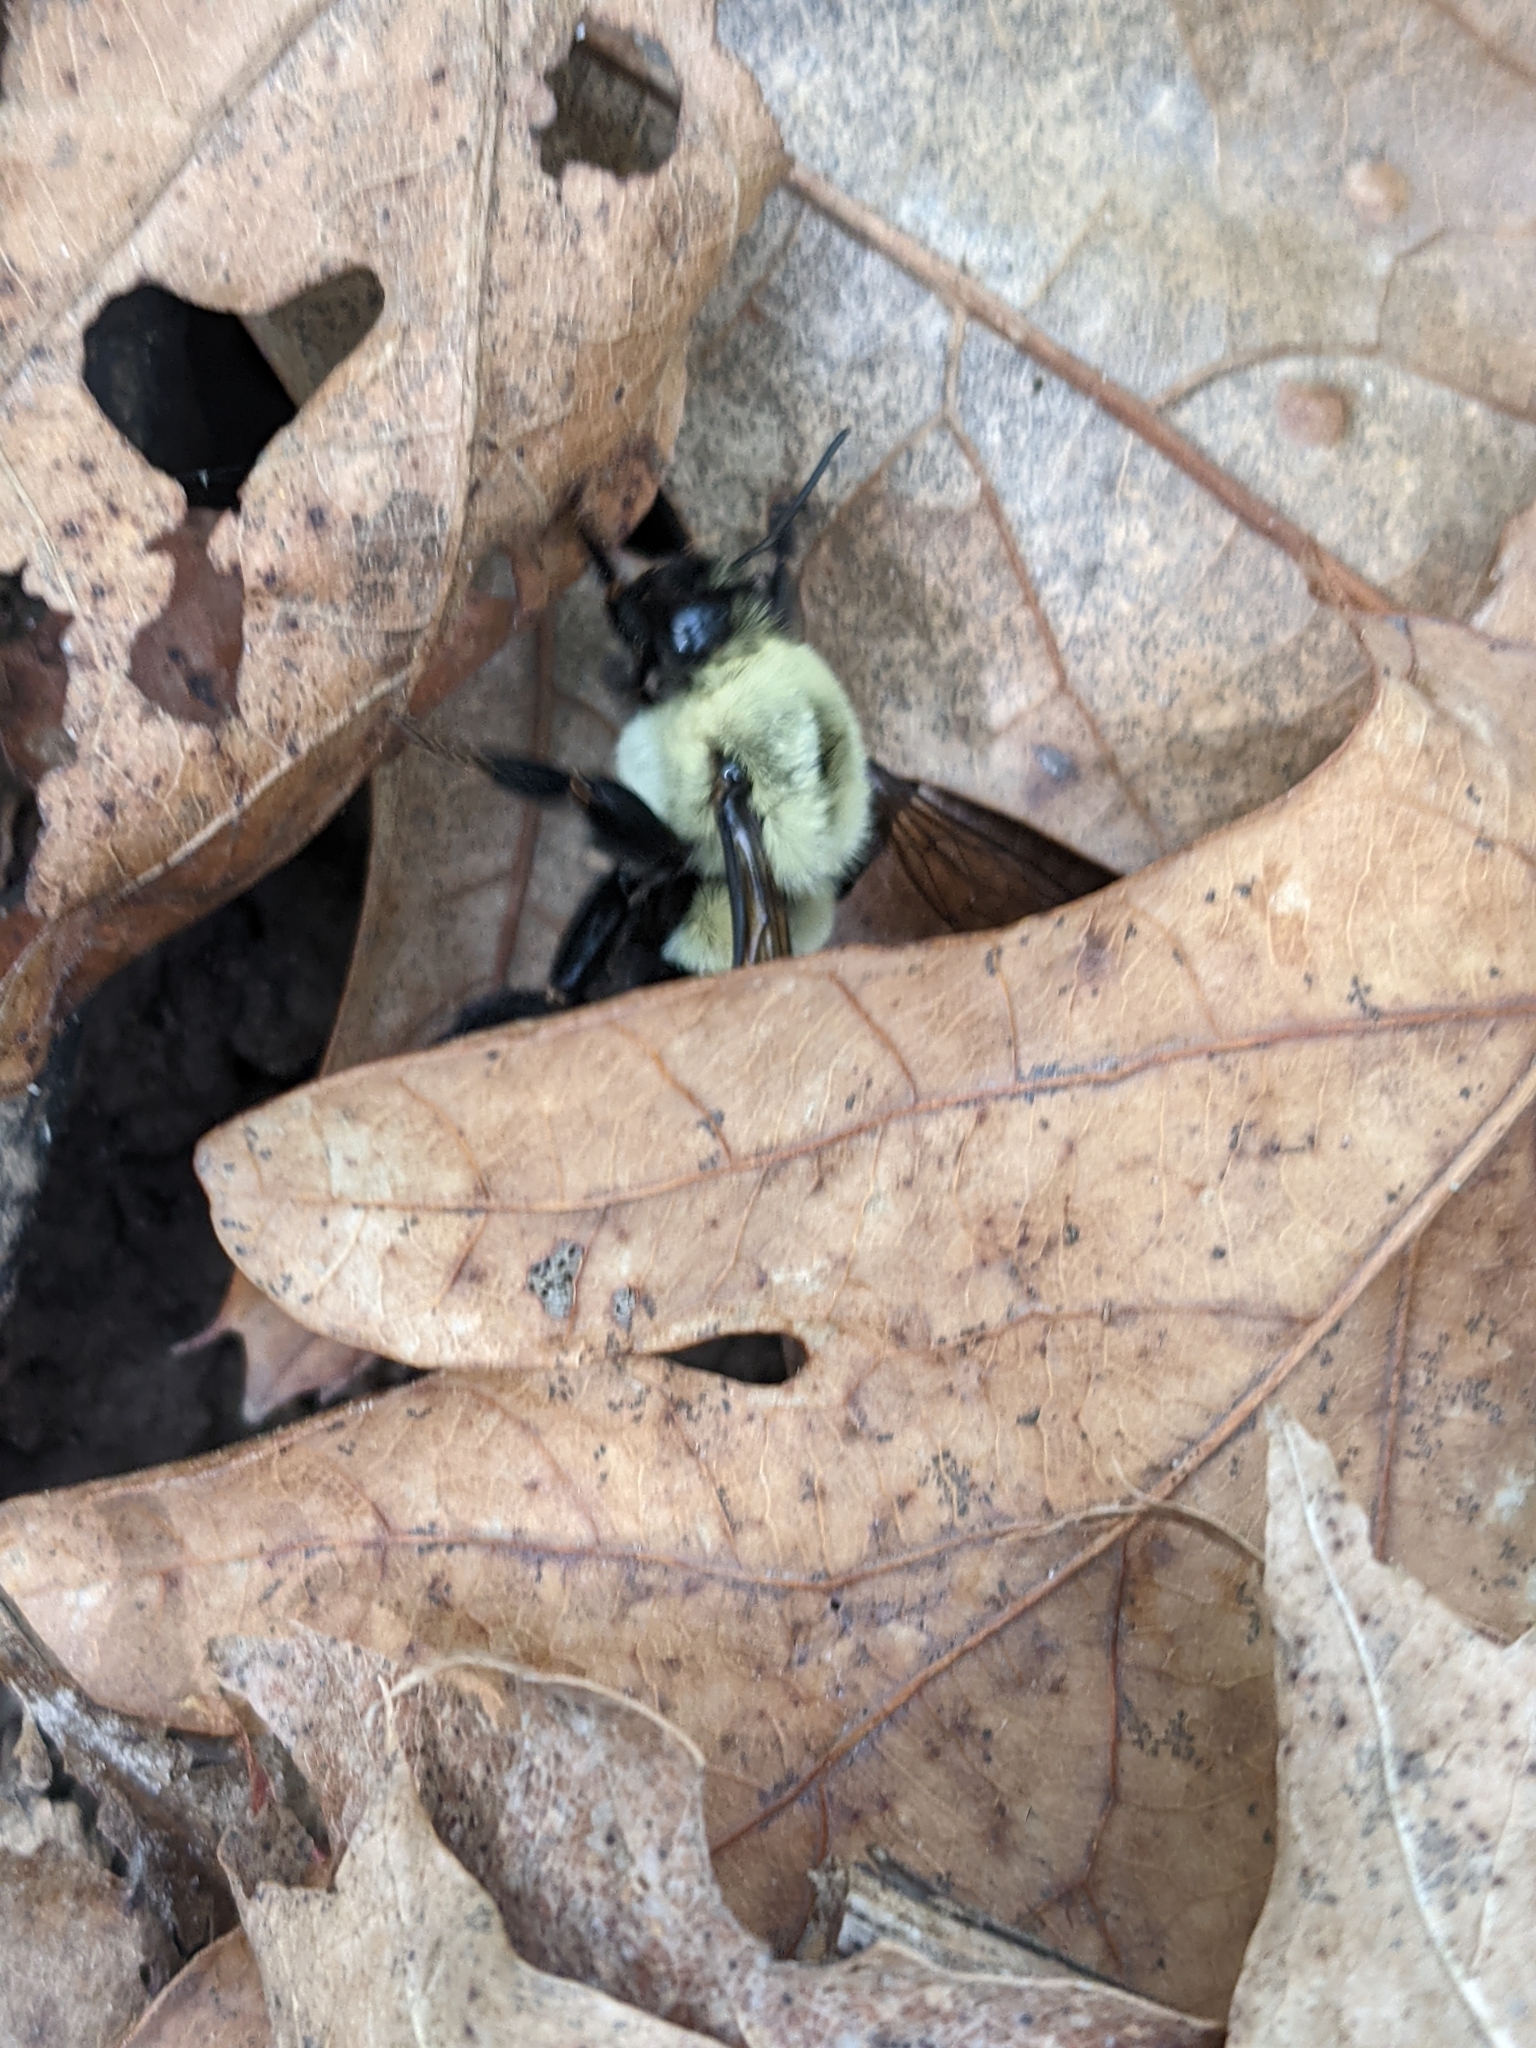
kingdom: Animalia
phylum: Arthropoda
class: Insecta
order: Hymenoptera
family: Apidae
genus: Bombus
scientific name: Bombus impatiens
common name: Common eastern bumble bee
